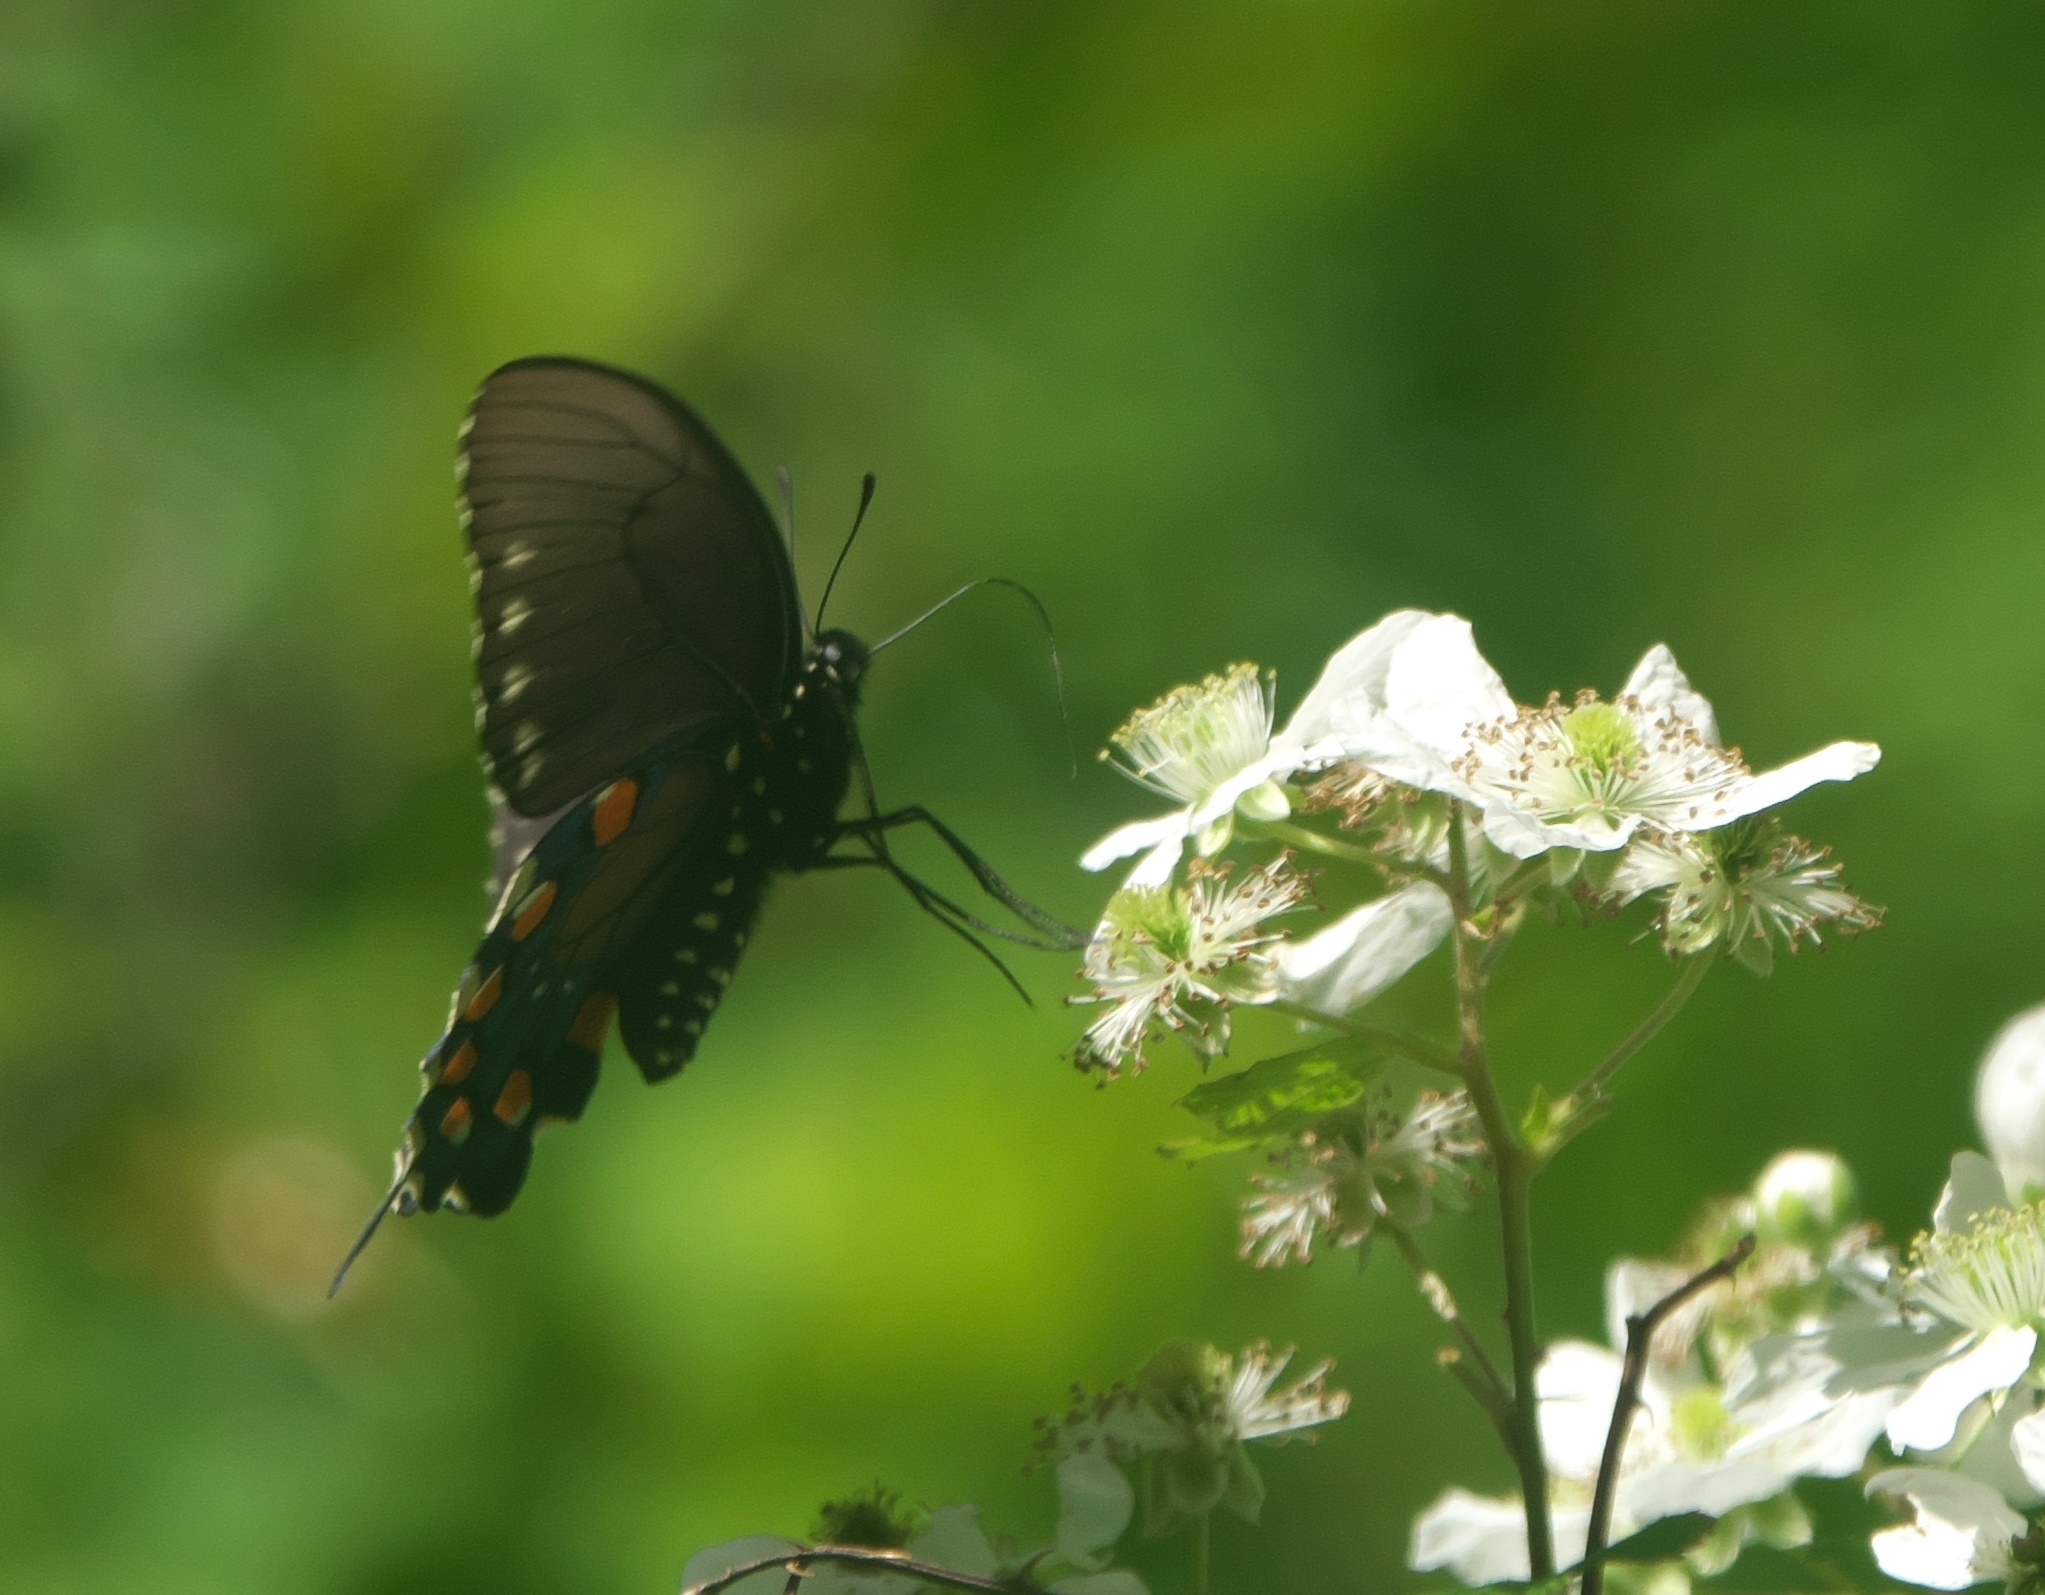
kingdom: Animalia
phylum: Arthropoda
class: Insecta
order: Lepidoptera
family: Papilionidae
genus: Battus
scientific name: Battus philenor
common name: Pipevine swallowtail
